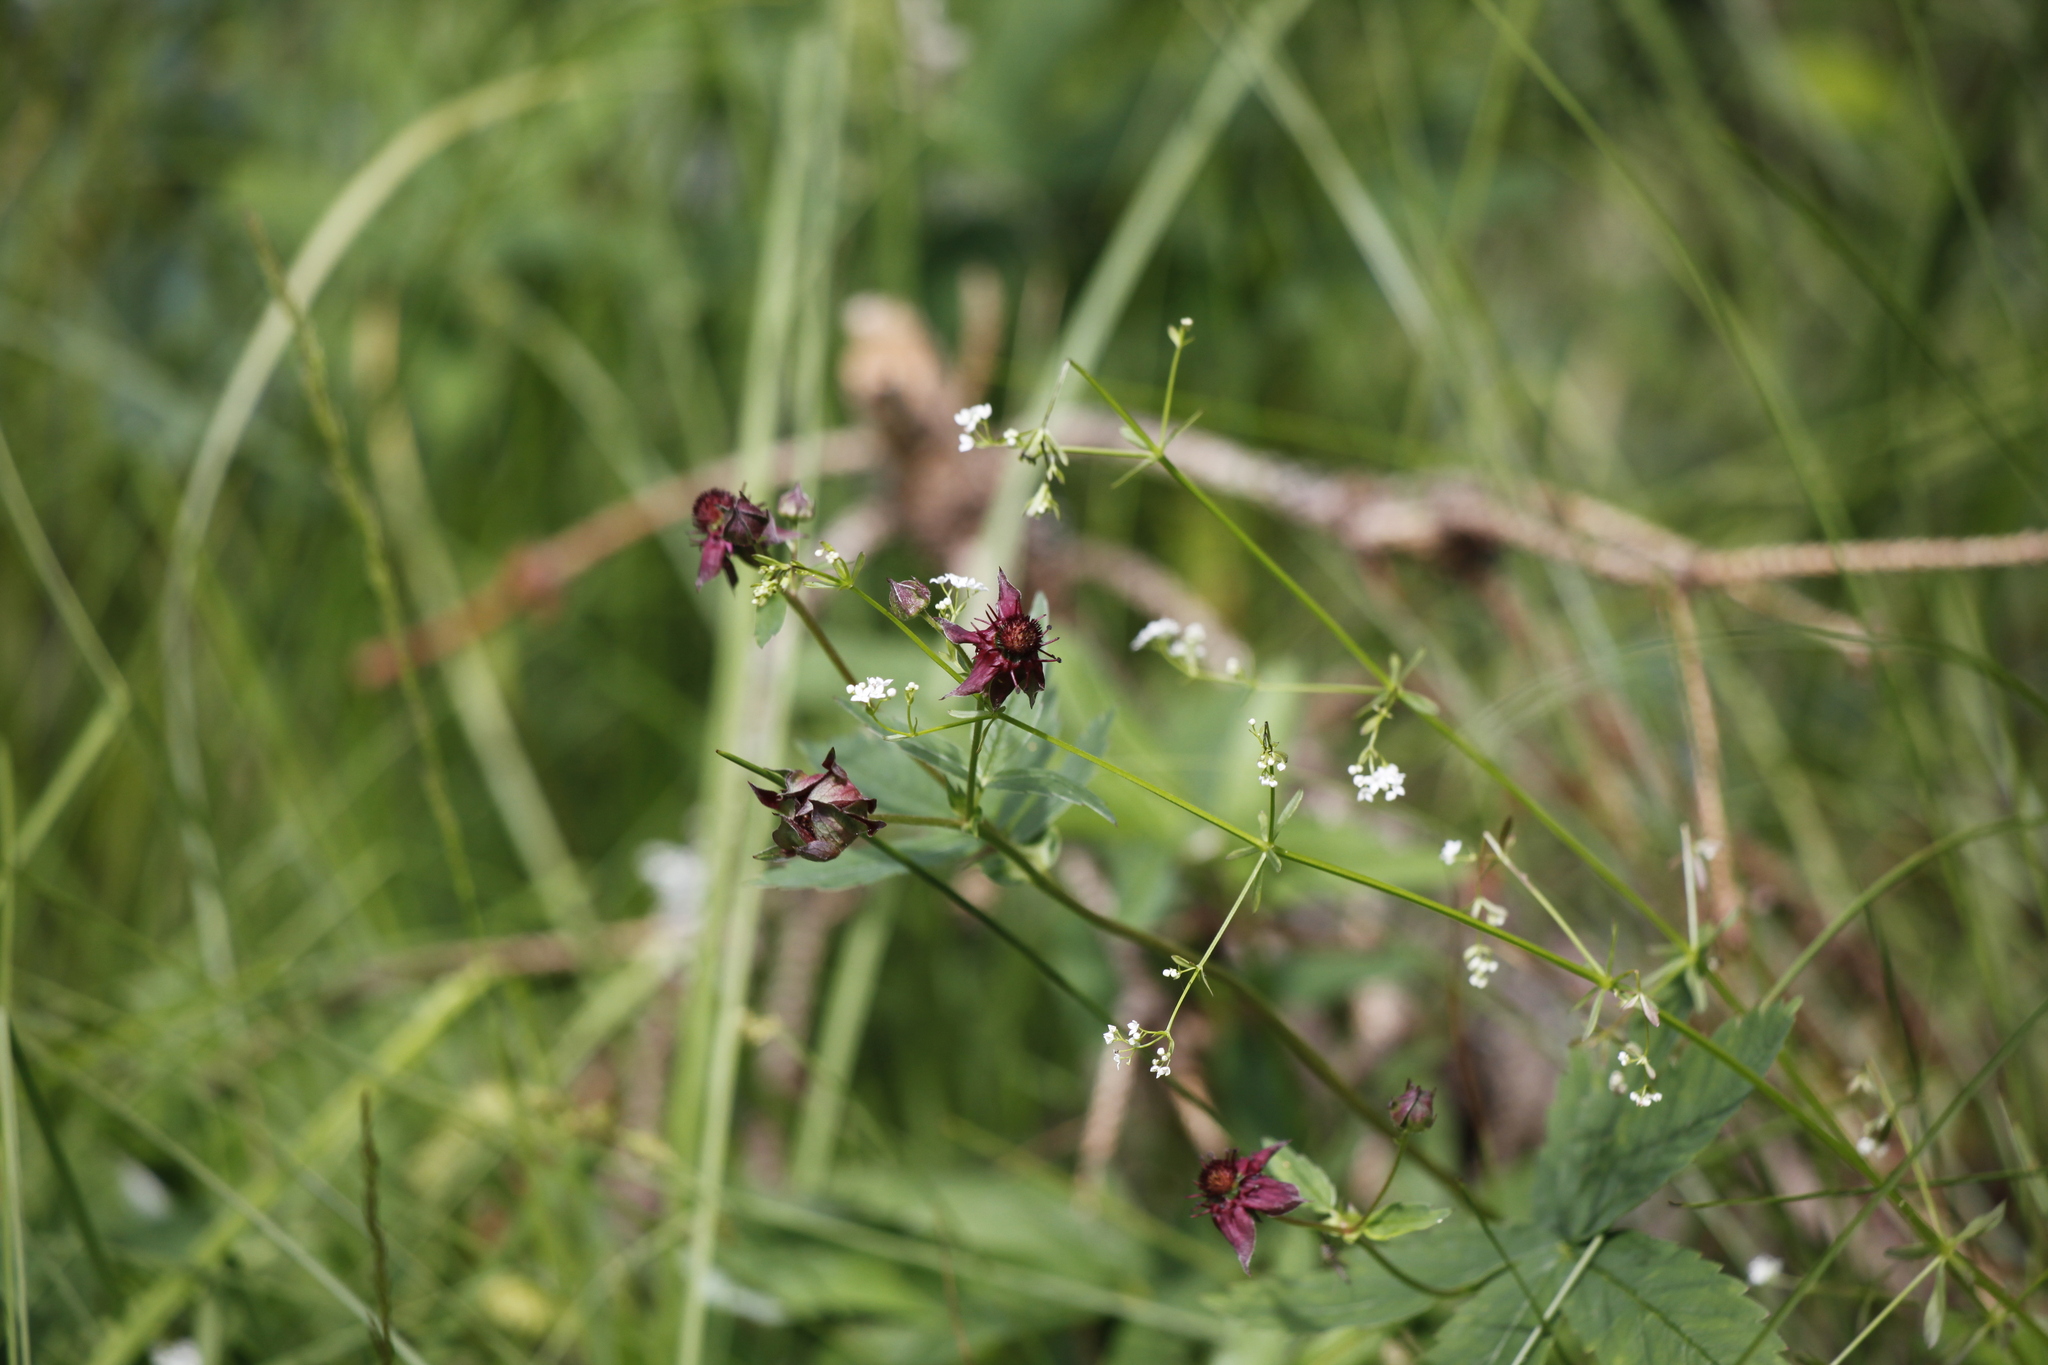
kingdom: Plantae
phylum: Tracheophyta
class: Magnoliopsida
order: Rosales
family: Rosaceae
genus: Comarum
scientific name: Comarum palustre
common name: Marsh cinquefoil
